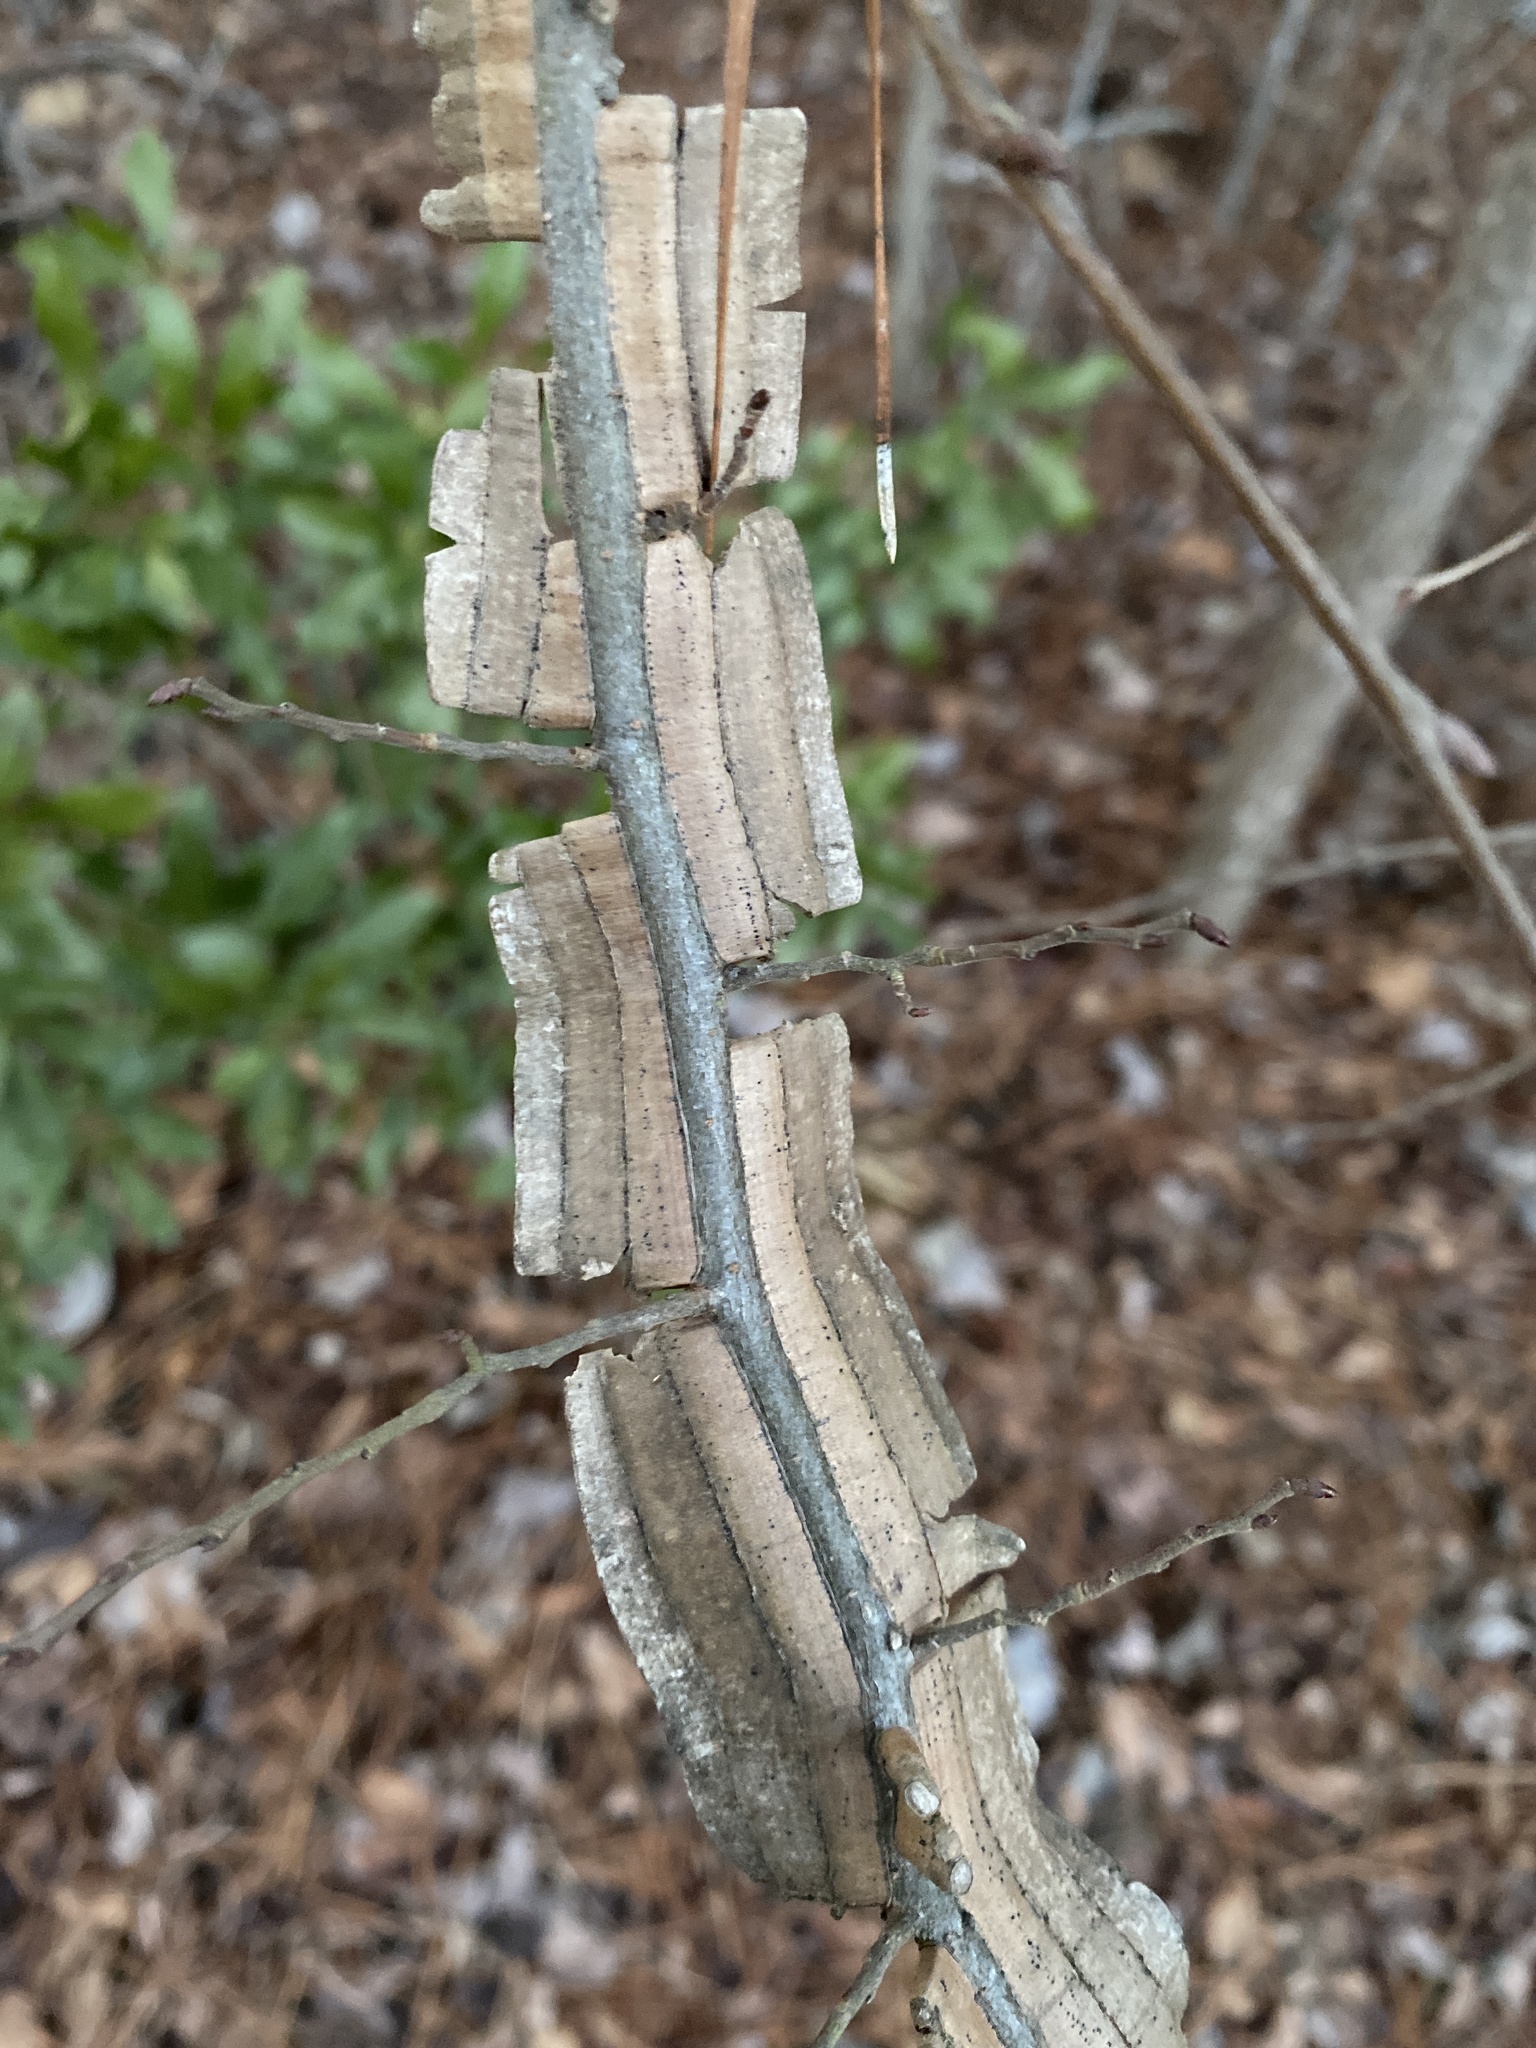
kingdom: Plantae
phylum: Tracheophyta
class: Magnoliopsida
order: Rosales
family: Ulmaceae
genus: Ulmus
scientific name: Ulmus alata
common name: Winged elm
